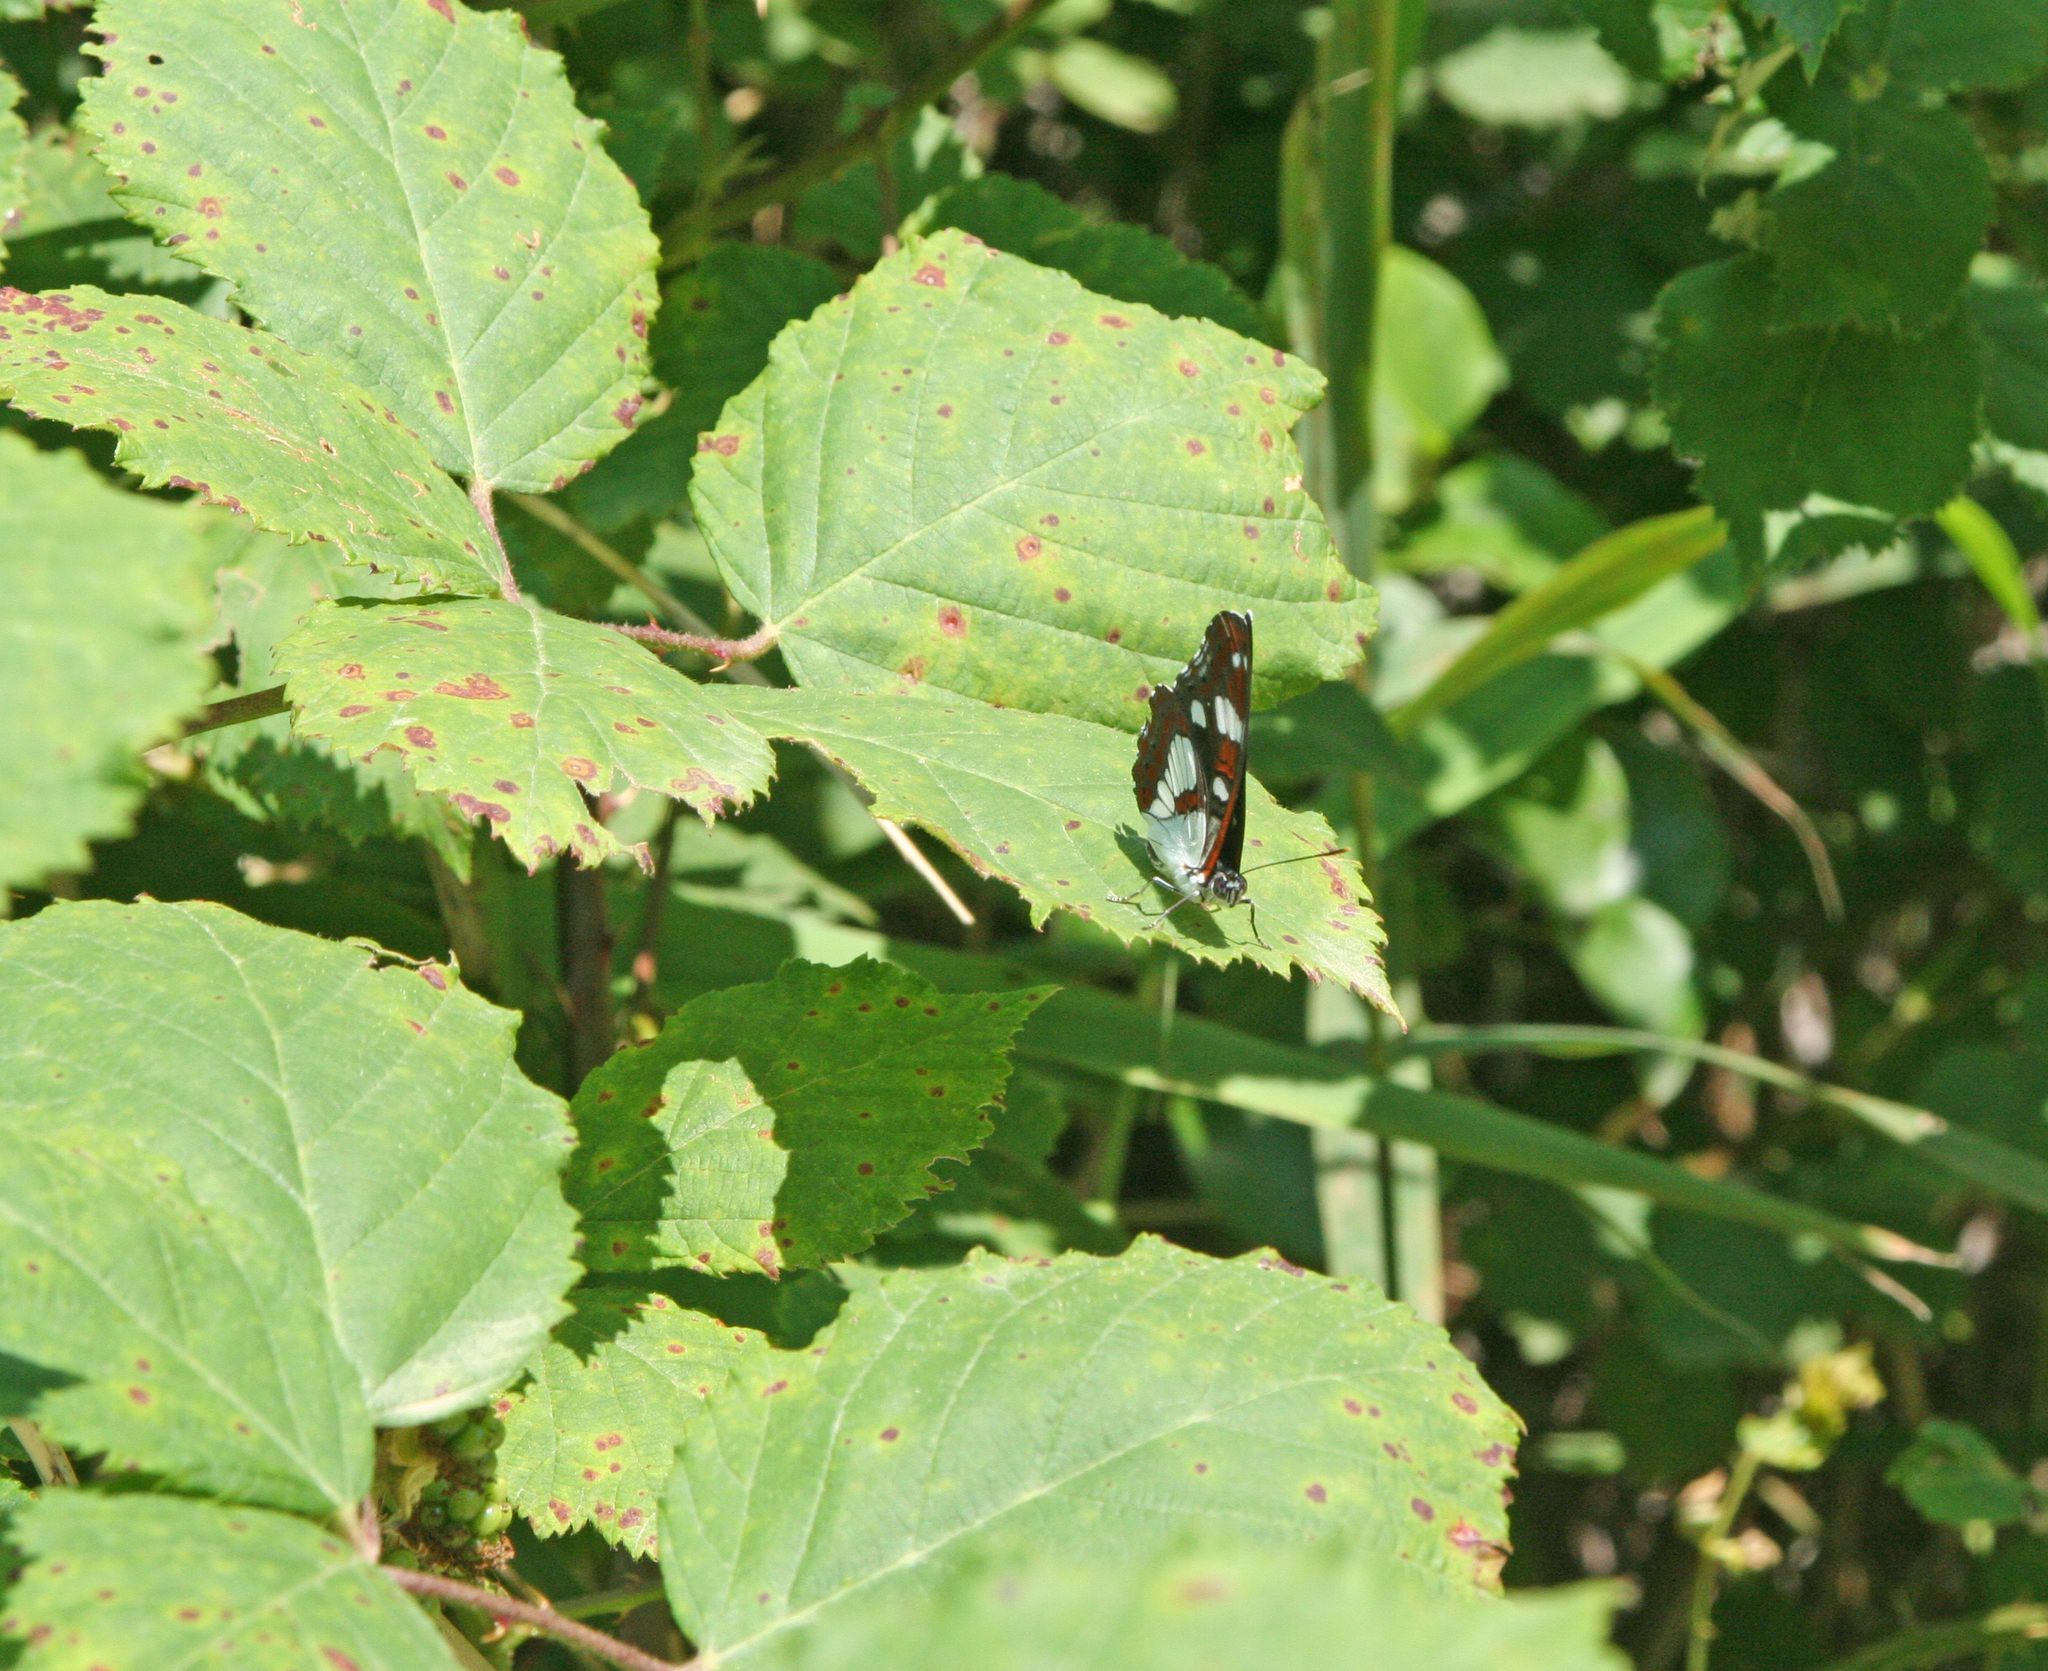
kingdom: Animalia
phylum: Arthropoda
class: Insecta
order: Lepidoptera
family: Nymphalidae
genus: Limenitis
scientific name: Limenitis reducta
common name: Southern white admiral
